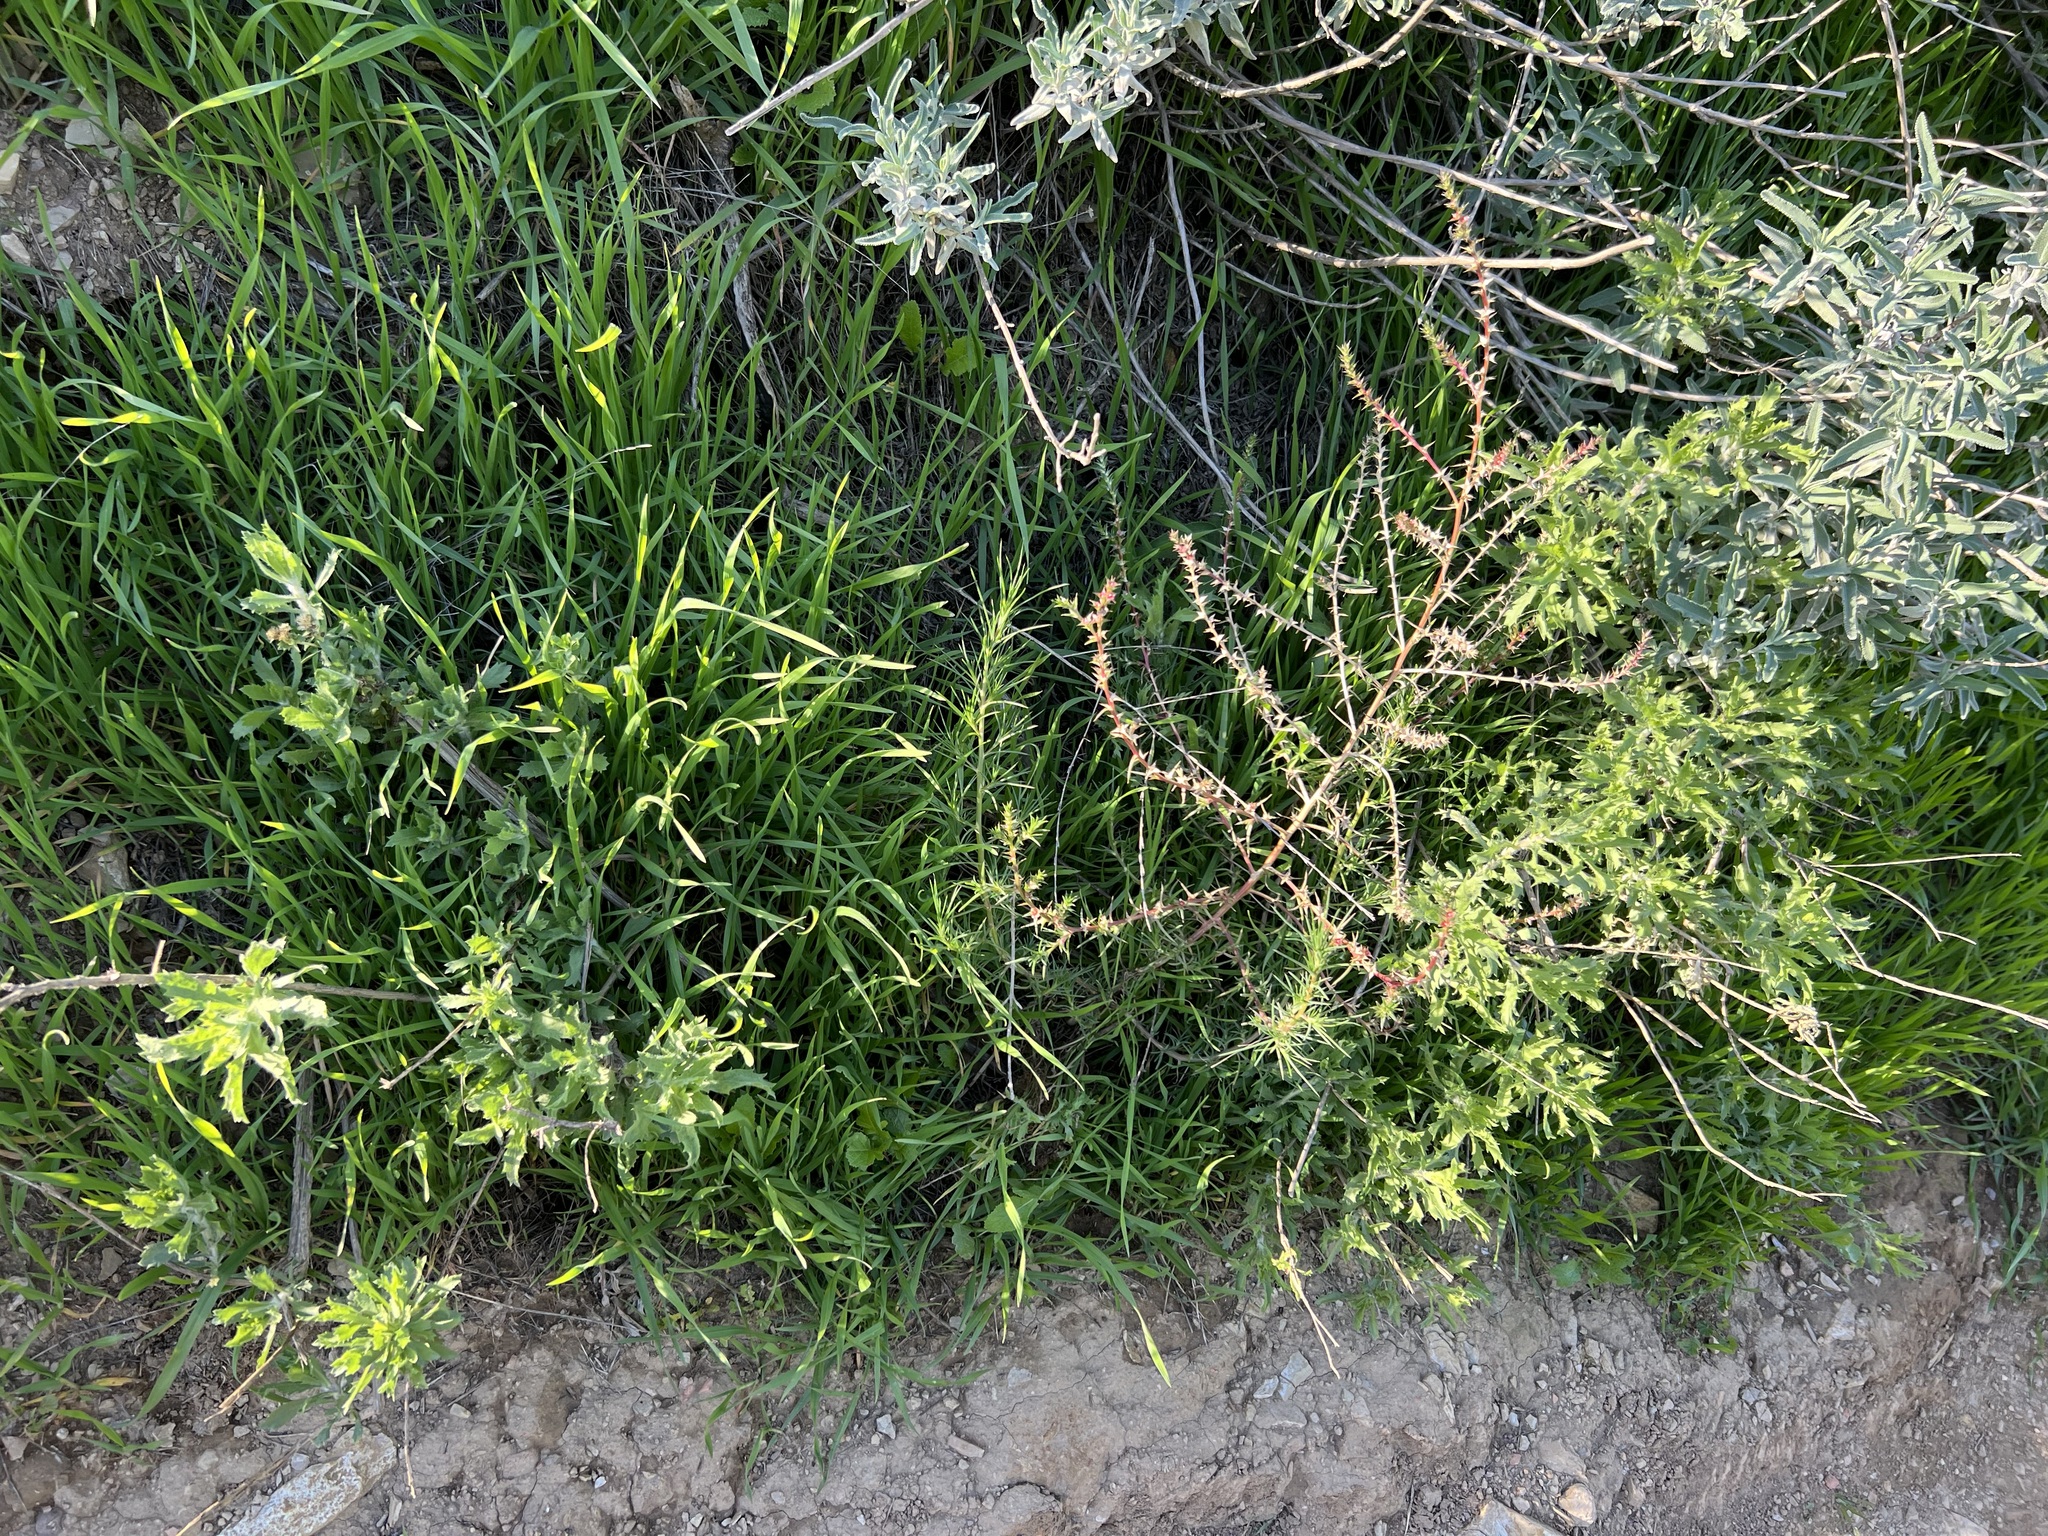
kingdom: Plantae
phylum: Tracheophyta
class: Magnoliopsida
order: Asterales
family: Asteraceae
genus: Isocoma
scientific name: Isocoma menziesii
